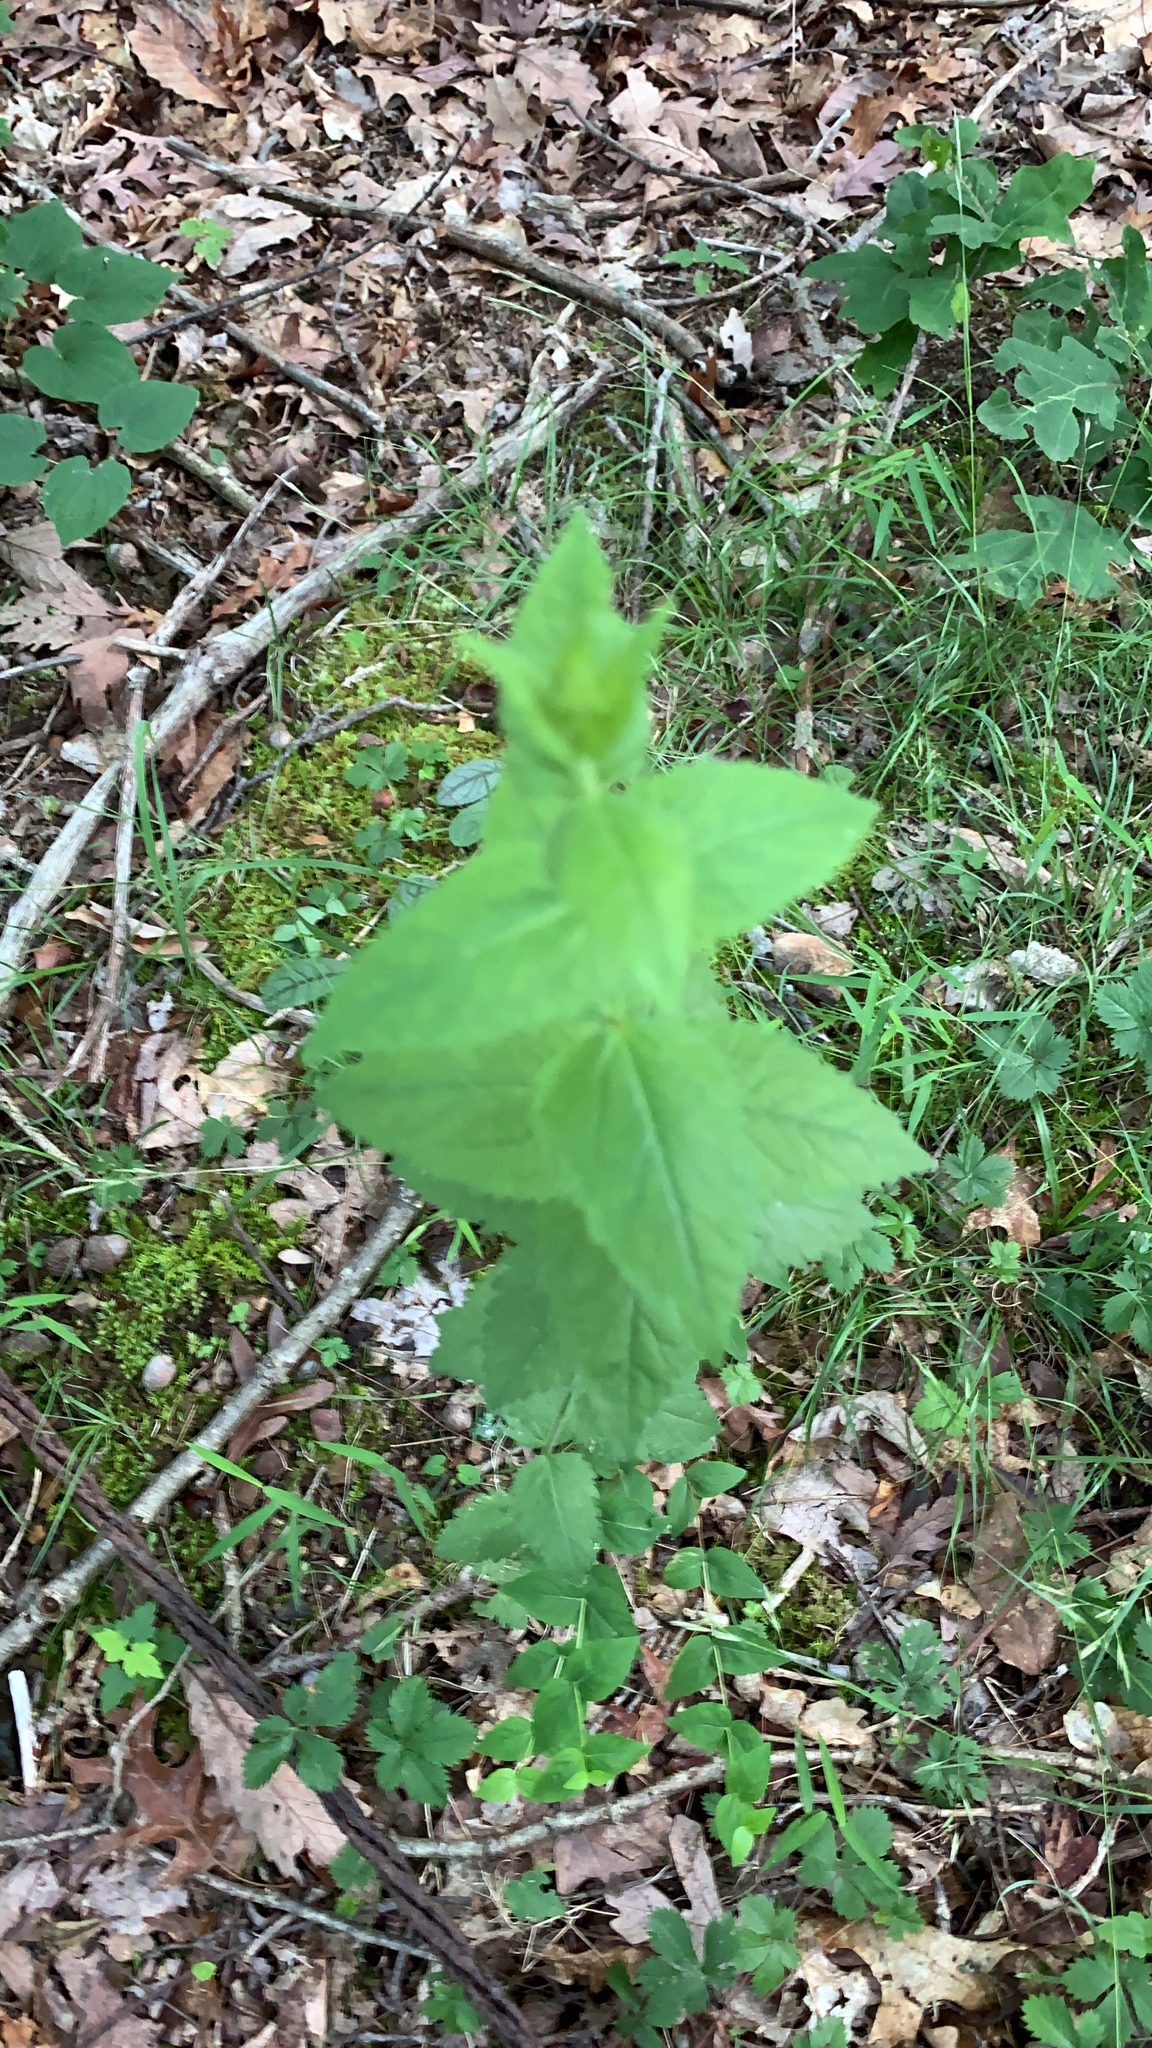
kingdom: Plantae
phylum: Tracheophyta
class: Magnoliopsida
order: Asterales
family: Asteraceae
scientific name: Asteraceae
